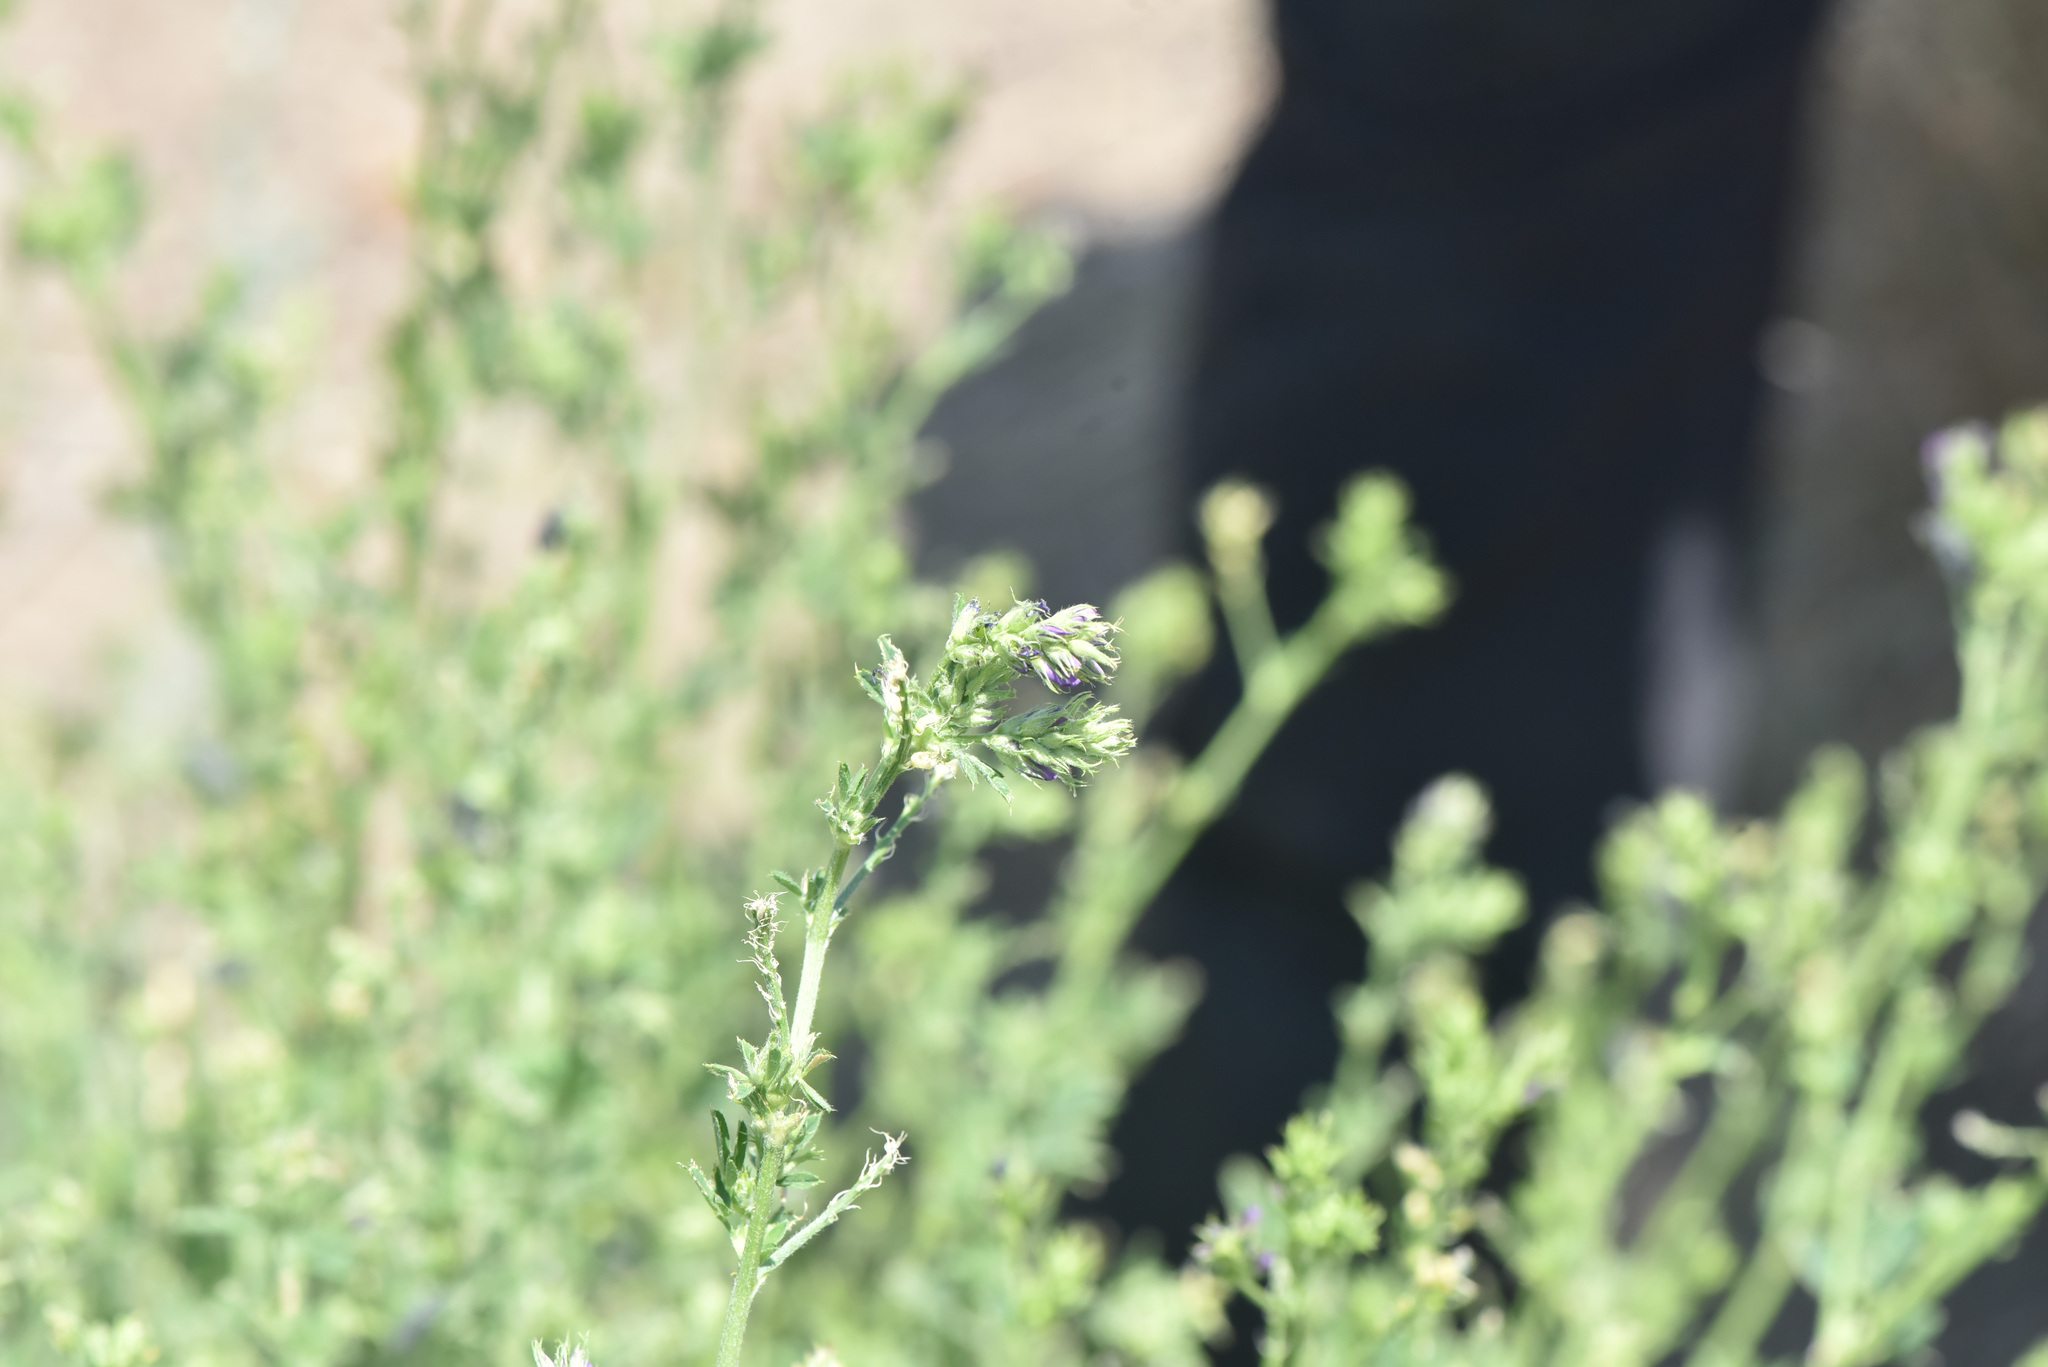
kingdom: Plantae
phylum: Tracheophyta
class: Magnoliopsida
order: Fabales
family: Fabaceae
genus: Medicago
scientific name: Medicago sativa
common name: Alfalfa
